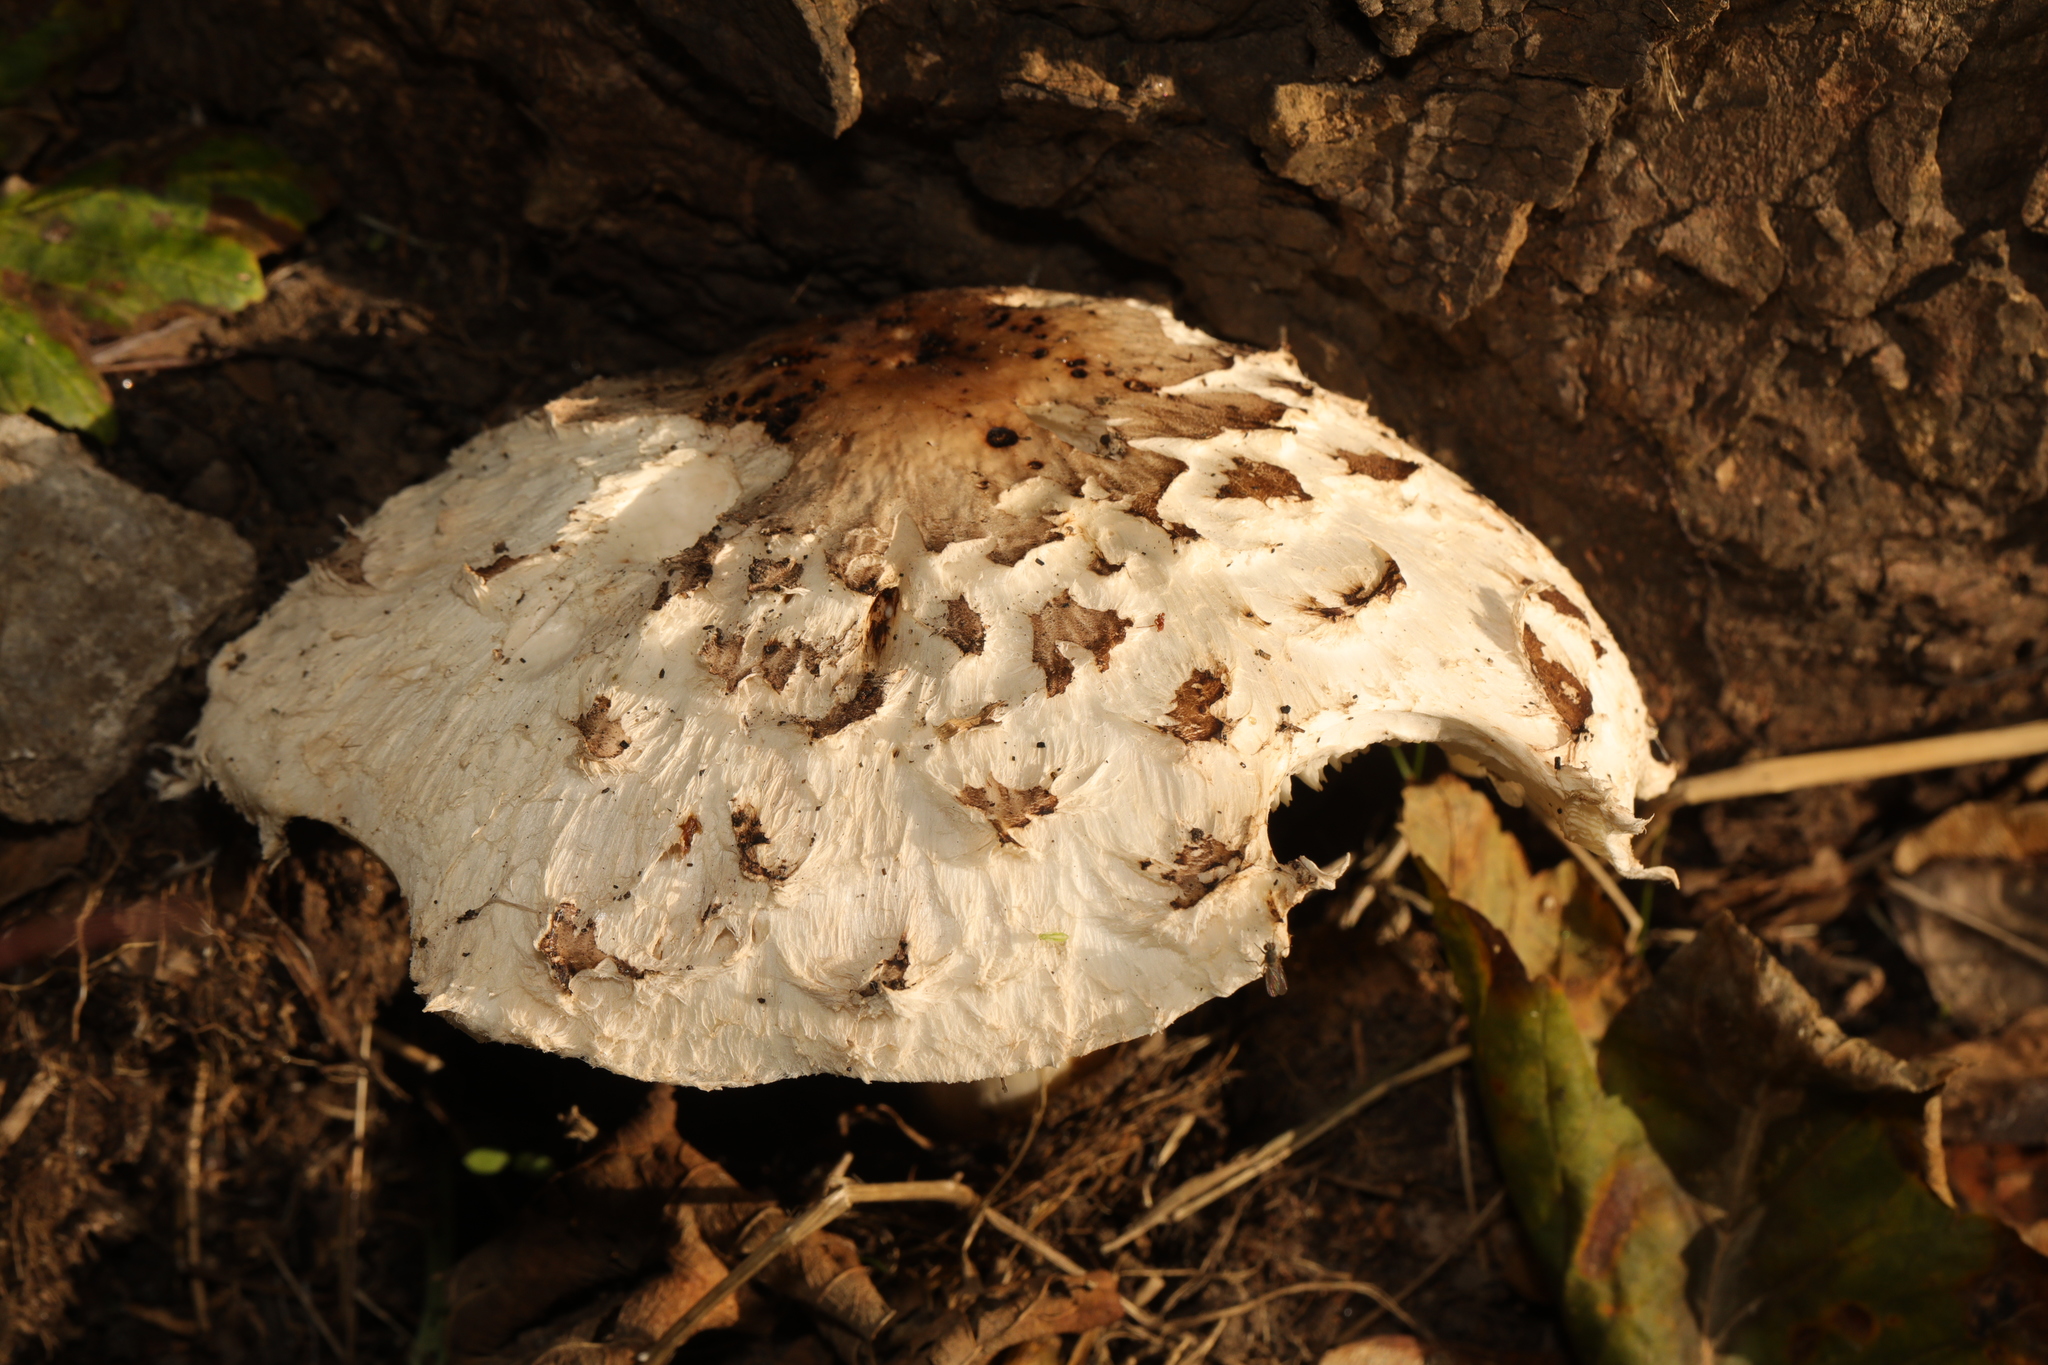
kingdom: Fungi
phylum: Basidiomycota
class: Agaricomycetes
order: Agaricales
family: Agaricaceae
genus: Chlorophyllum
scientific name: Chlorophyllum rhacodes
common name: Shaggy parasol
